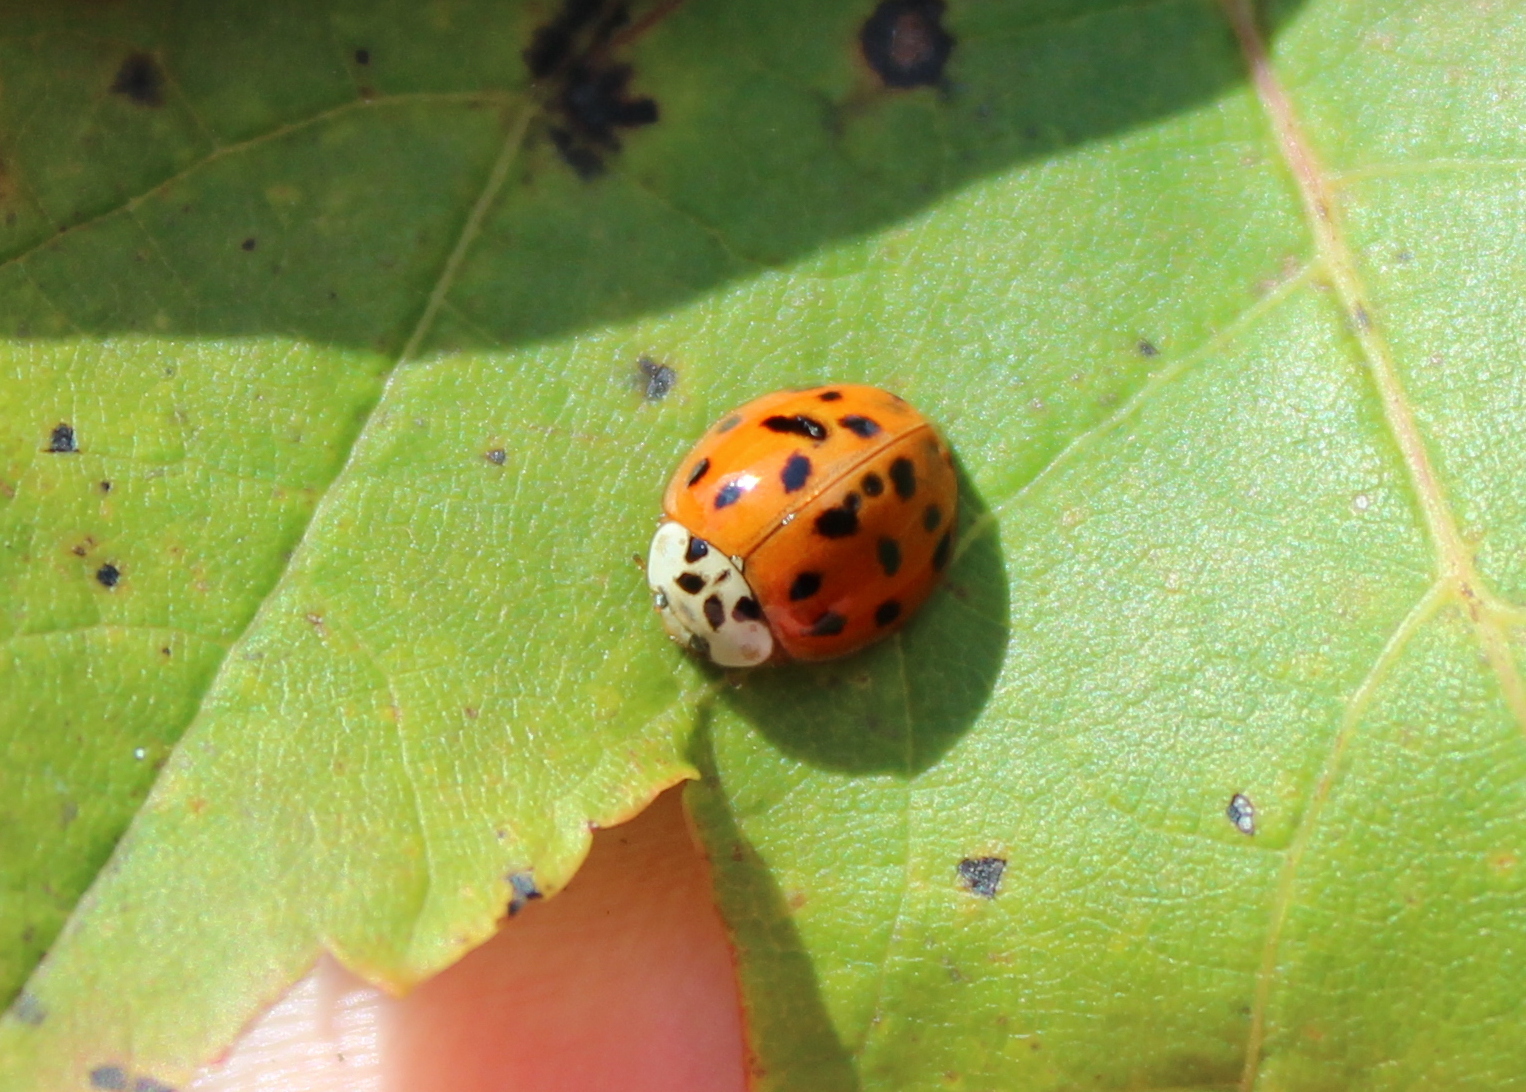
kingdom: Animalia
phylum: Arthropoda
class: Insecta
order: Coleoptera
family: Coccinellidae
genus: Harmonia
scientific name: Harmonia axyridis
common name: Harlequin ladybird
